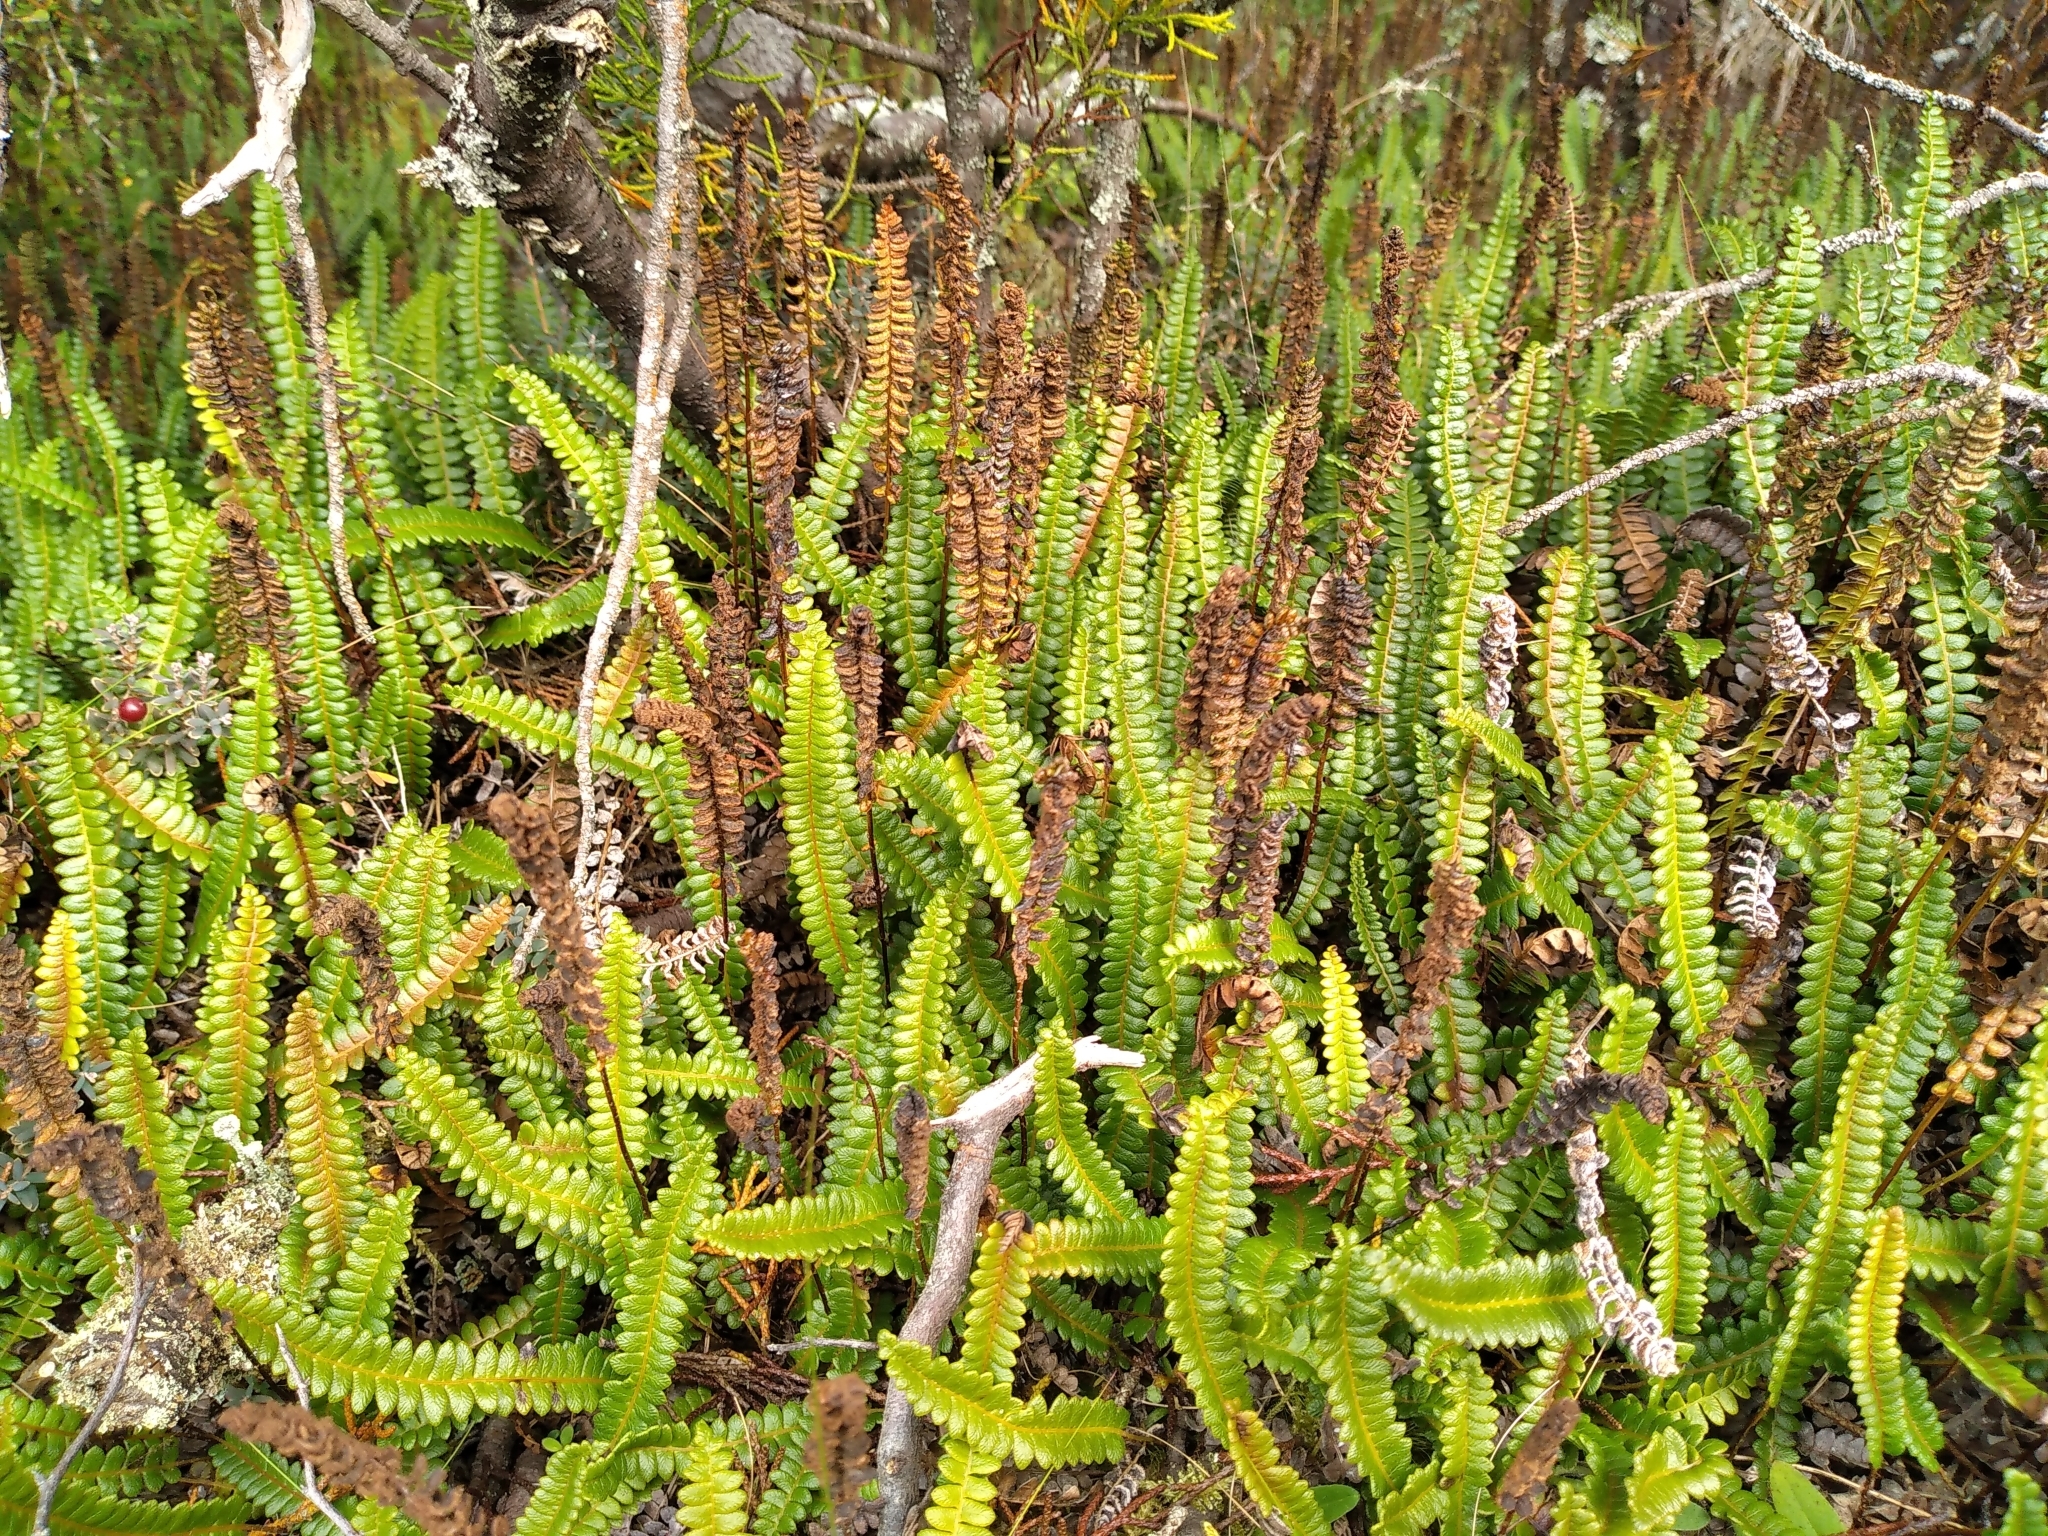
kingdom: Plantae
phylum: Tracheophyta
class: Polypodiopsida
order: Polypodiales
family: Blechnaceae
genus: Austroblechnum
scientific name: Austroblechnum penna-marina
